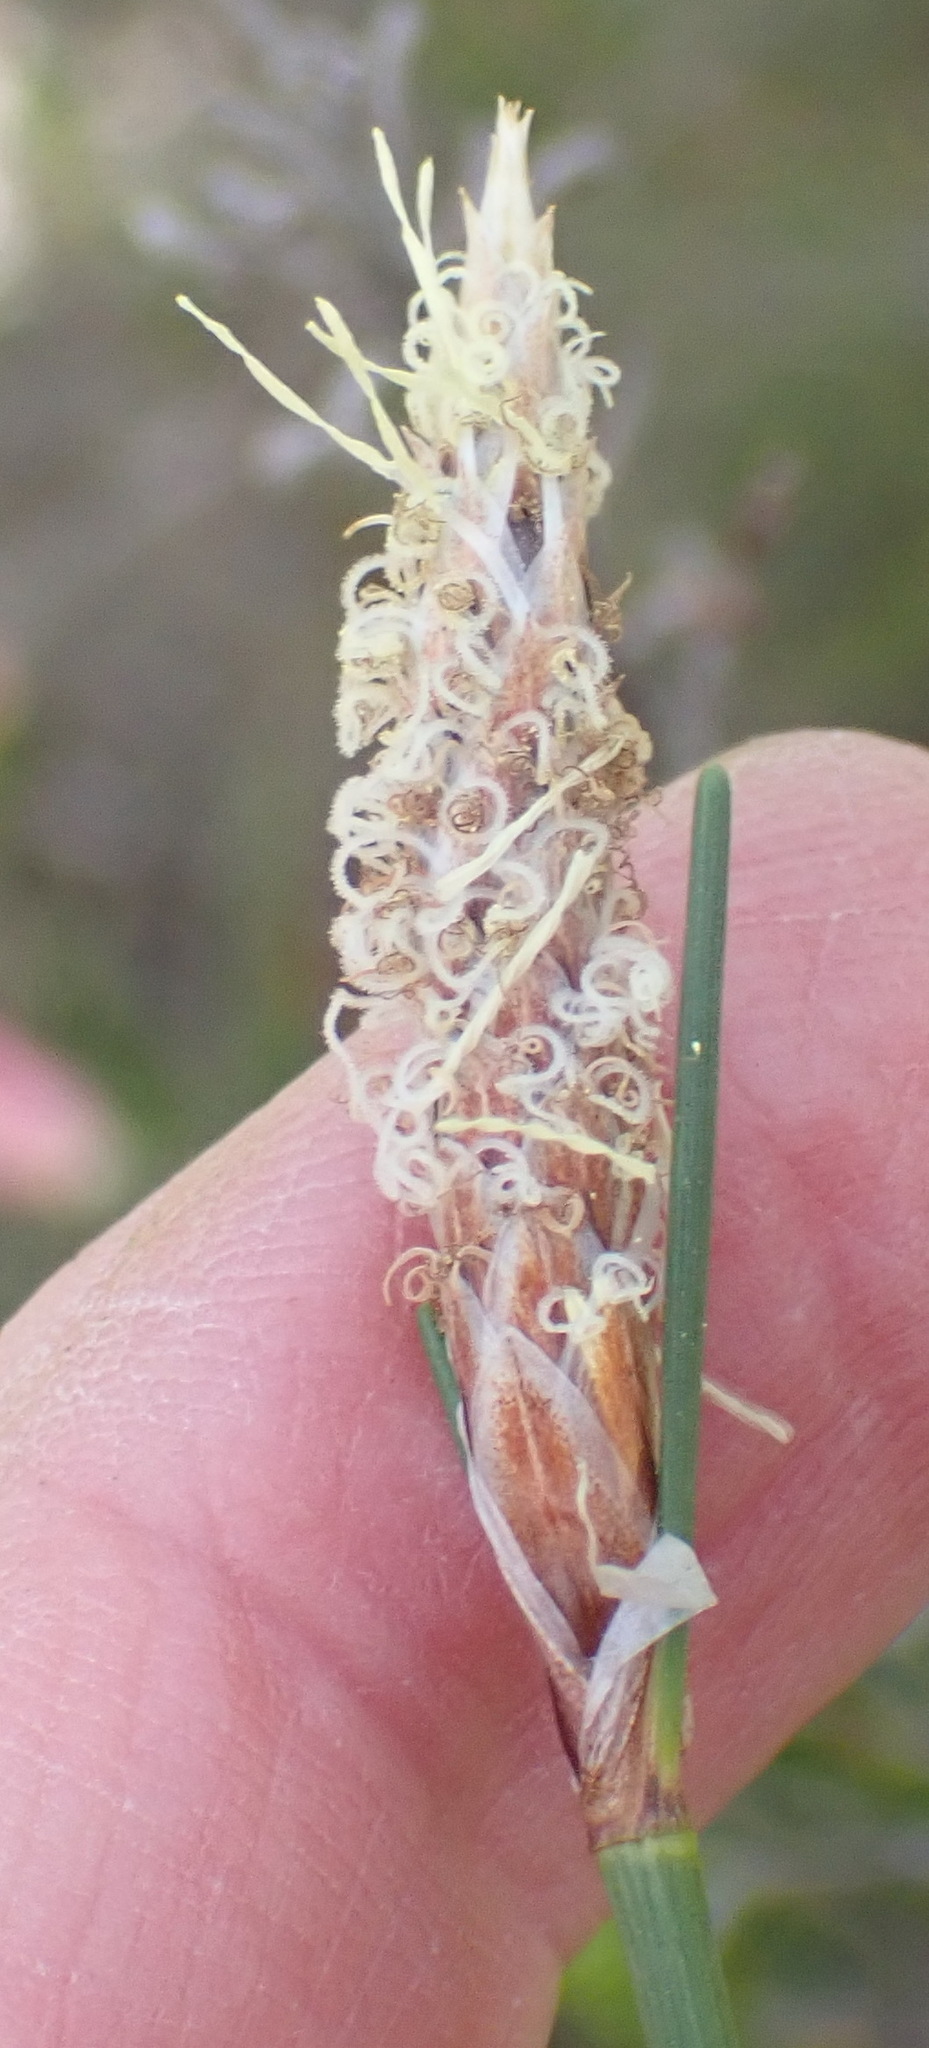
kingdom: Plantae
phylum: Tracheophyta
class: Liliopsida
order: Poales
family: Cyperaceae
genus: Ficinia
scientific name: Ficinia deusta
